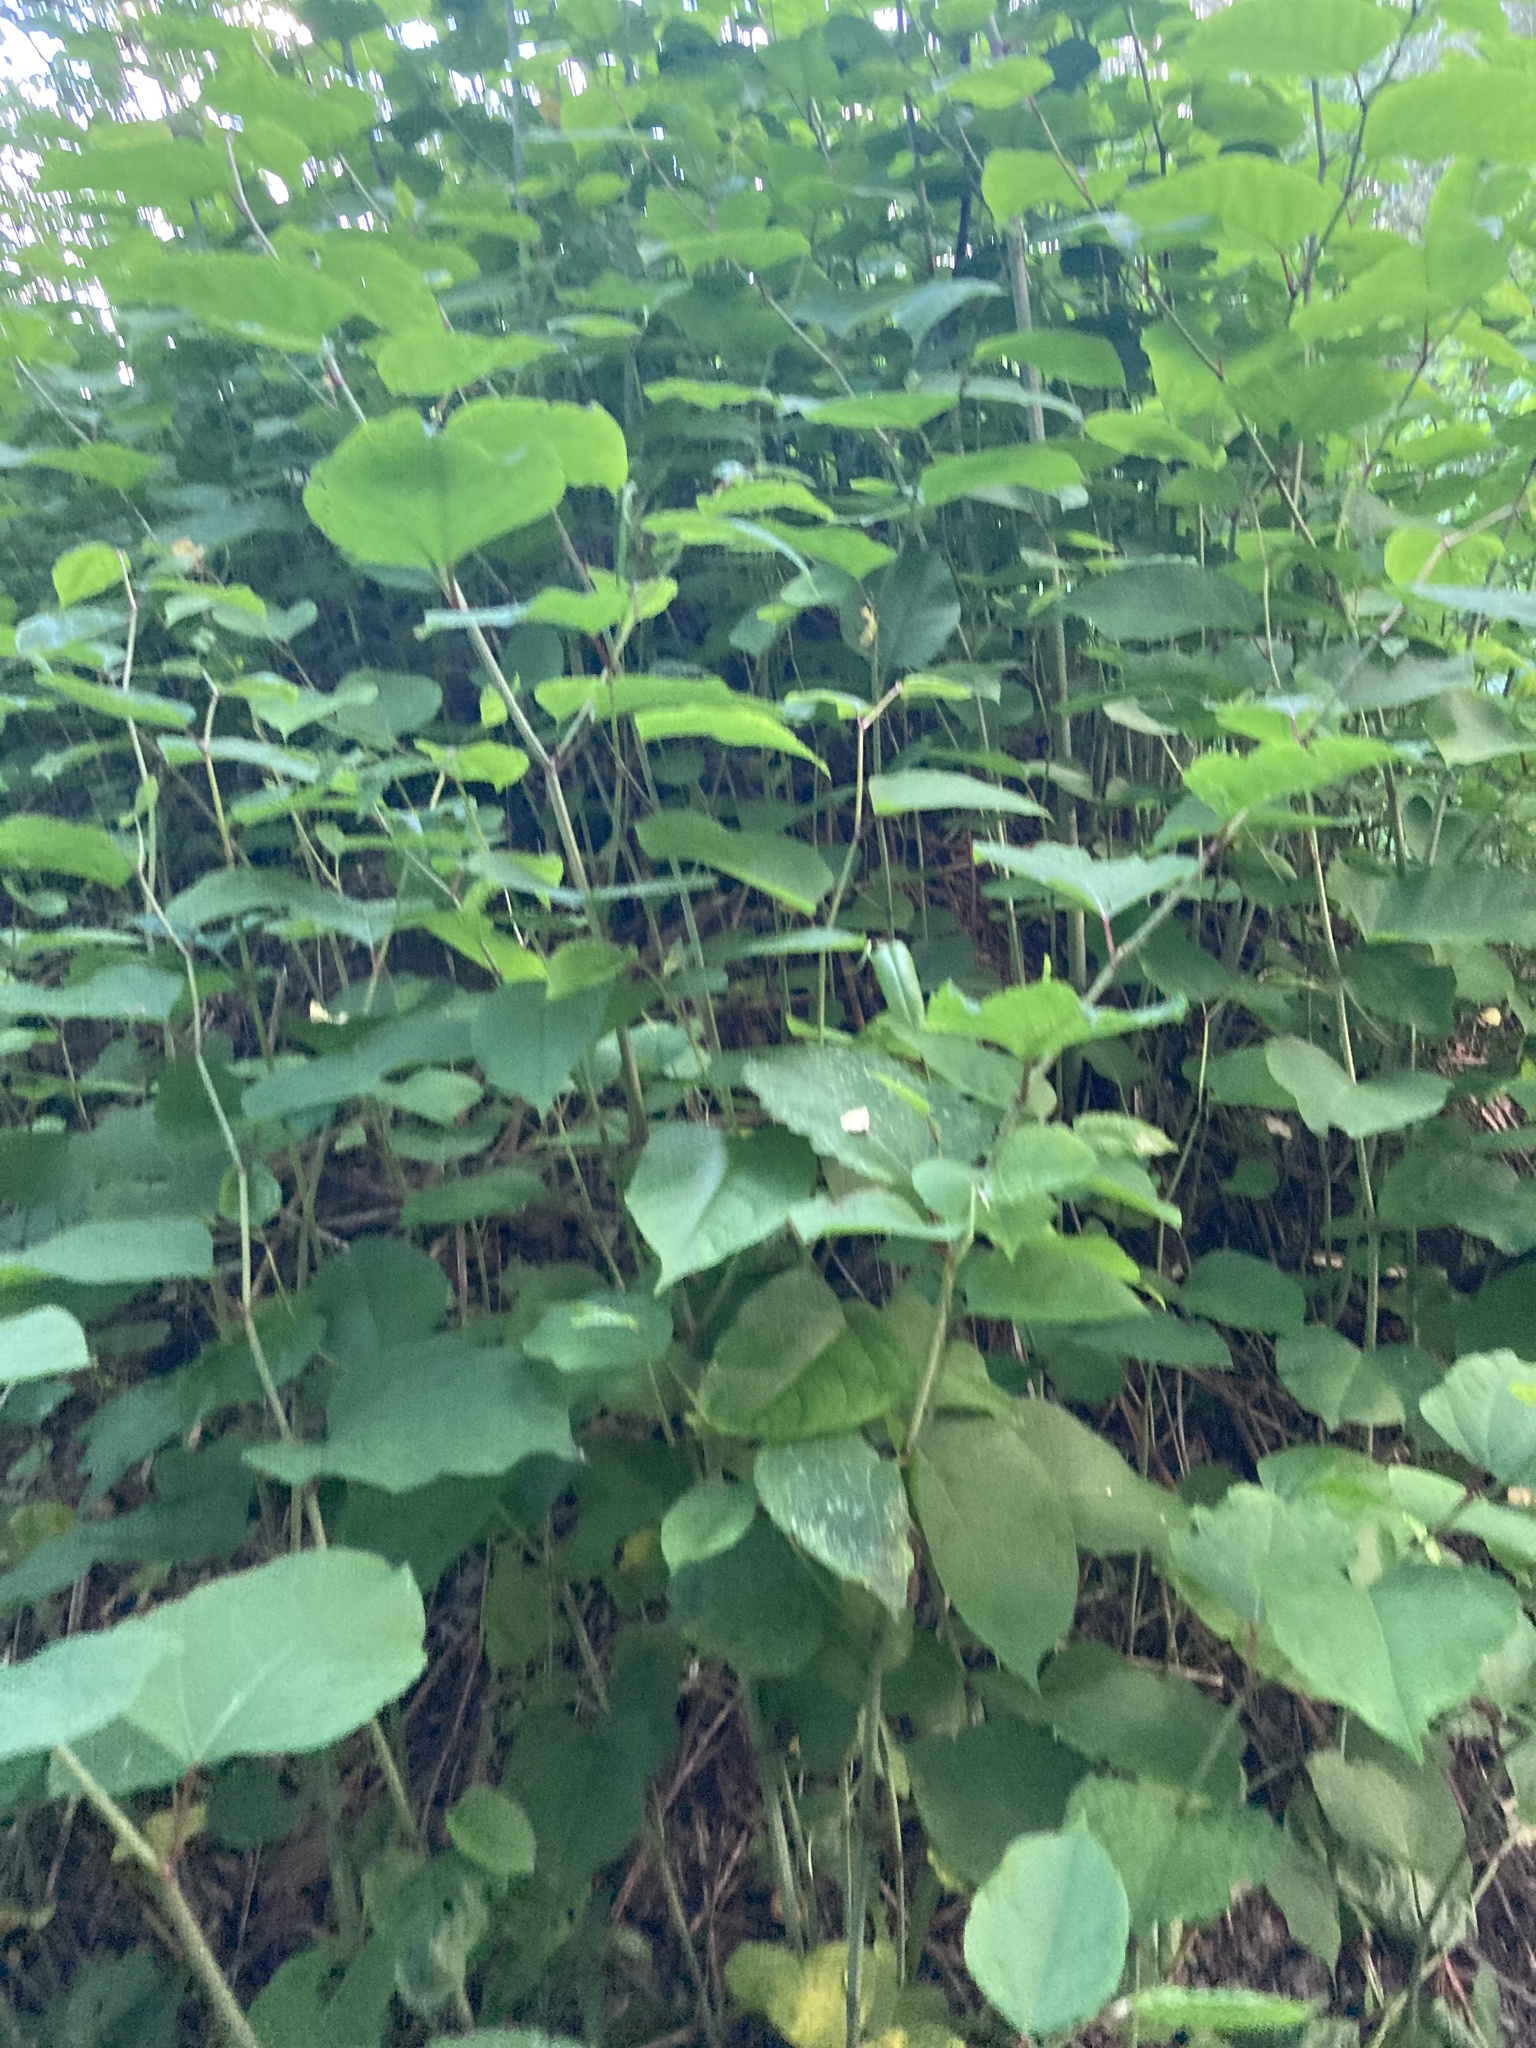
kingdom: Plantae
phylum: Tracheophyta
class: Magnoliopsida
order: Caryophyllales
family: Polygonaceae
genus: Reynoutria
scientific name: Reynoutria bohemica
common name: Bohemian knotweed
